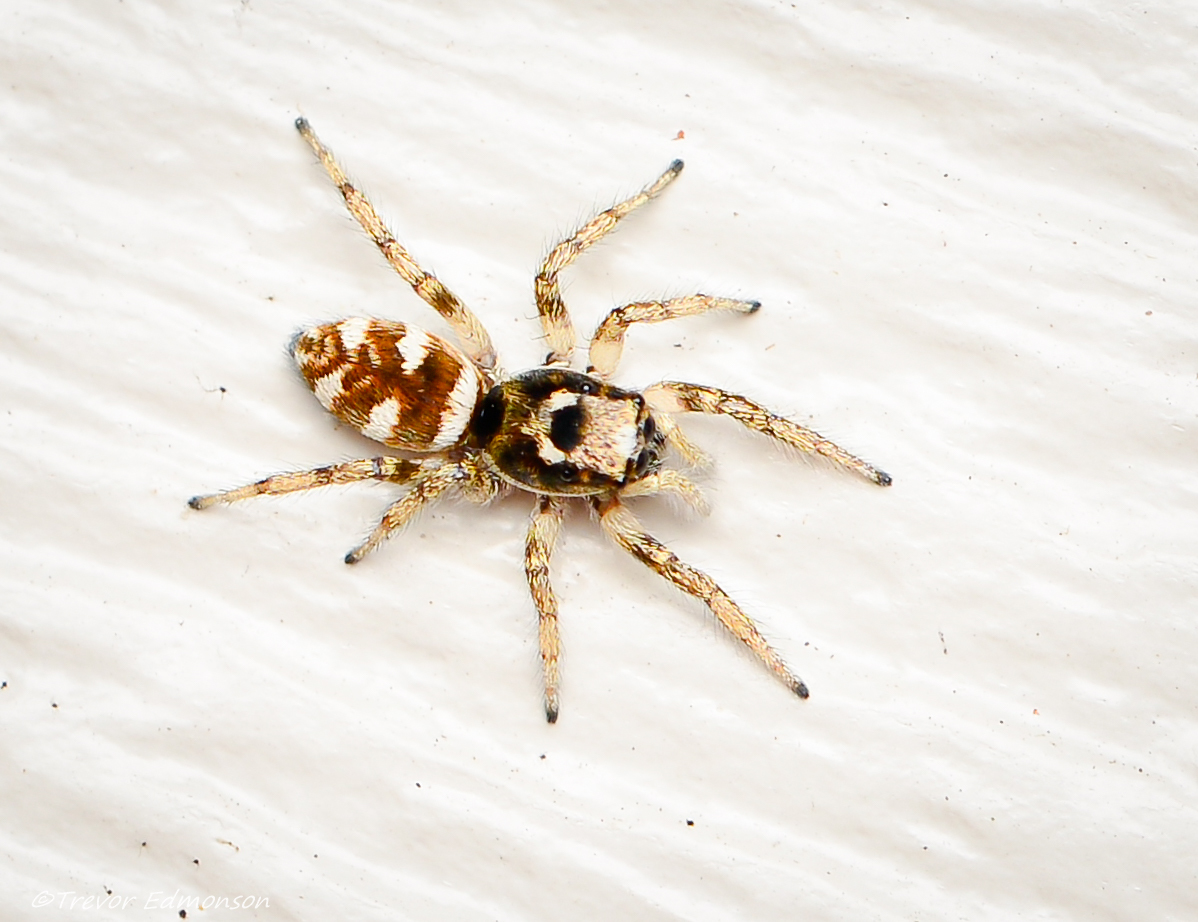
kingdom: Animalia
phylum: Arthropoda
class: Arachnida
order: Araneae
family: Salticidae
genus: Salticus
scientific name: Salticus scenicus
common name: Zebra jumper
